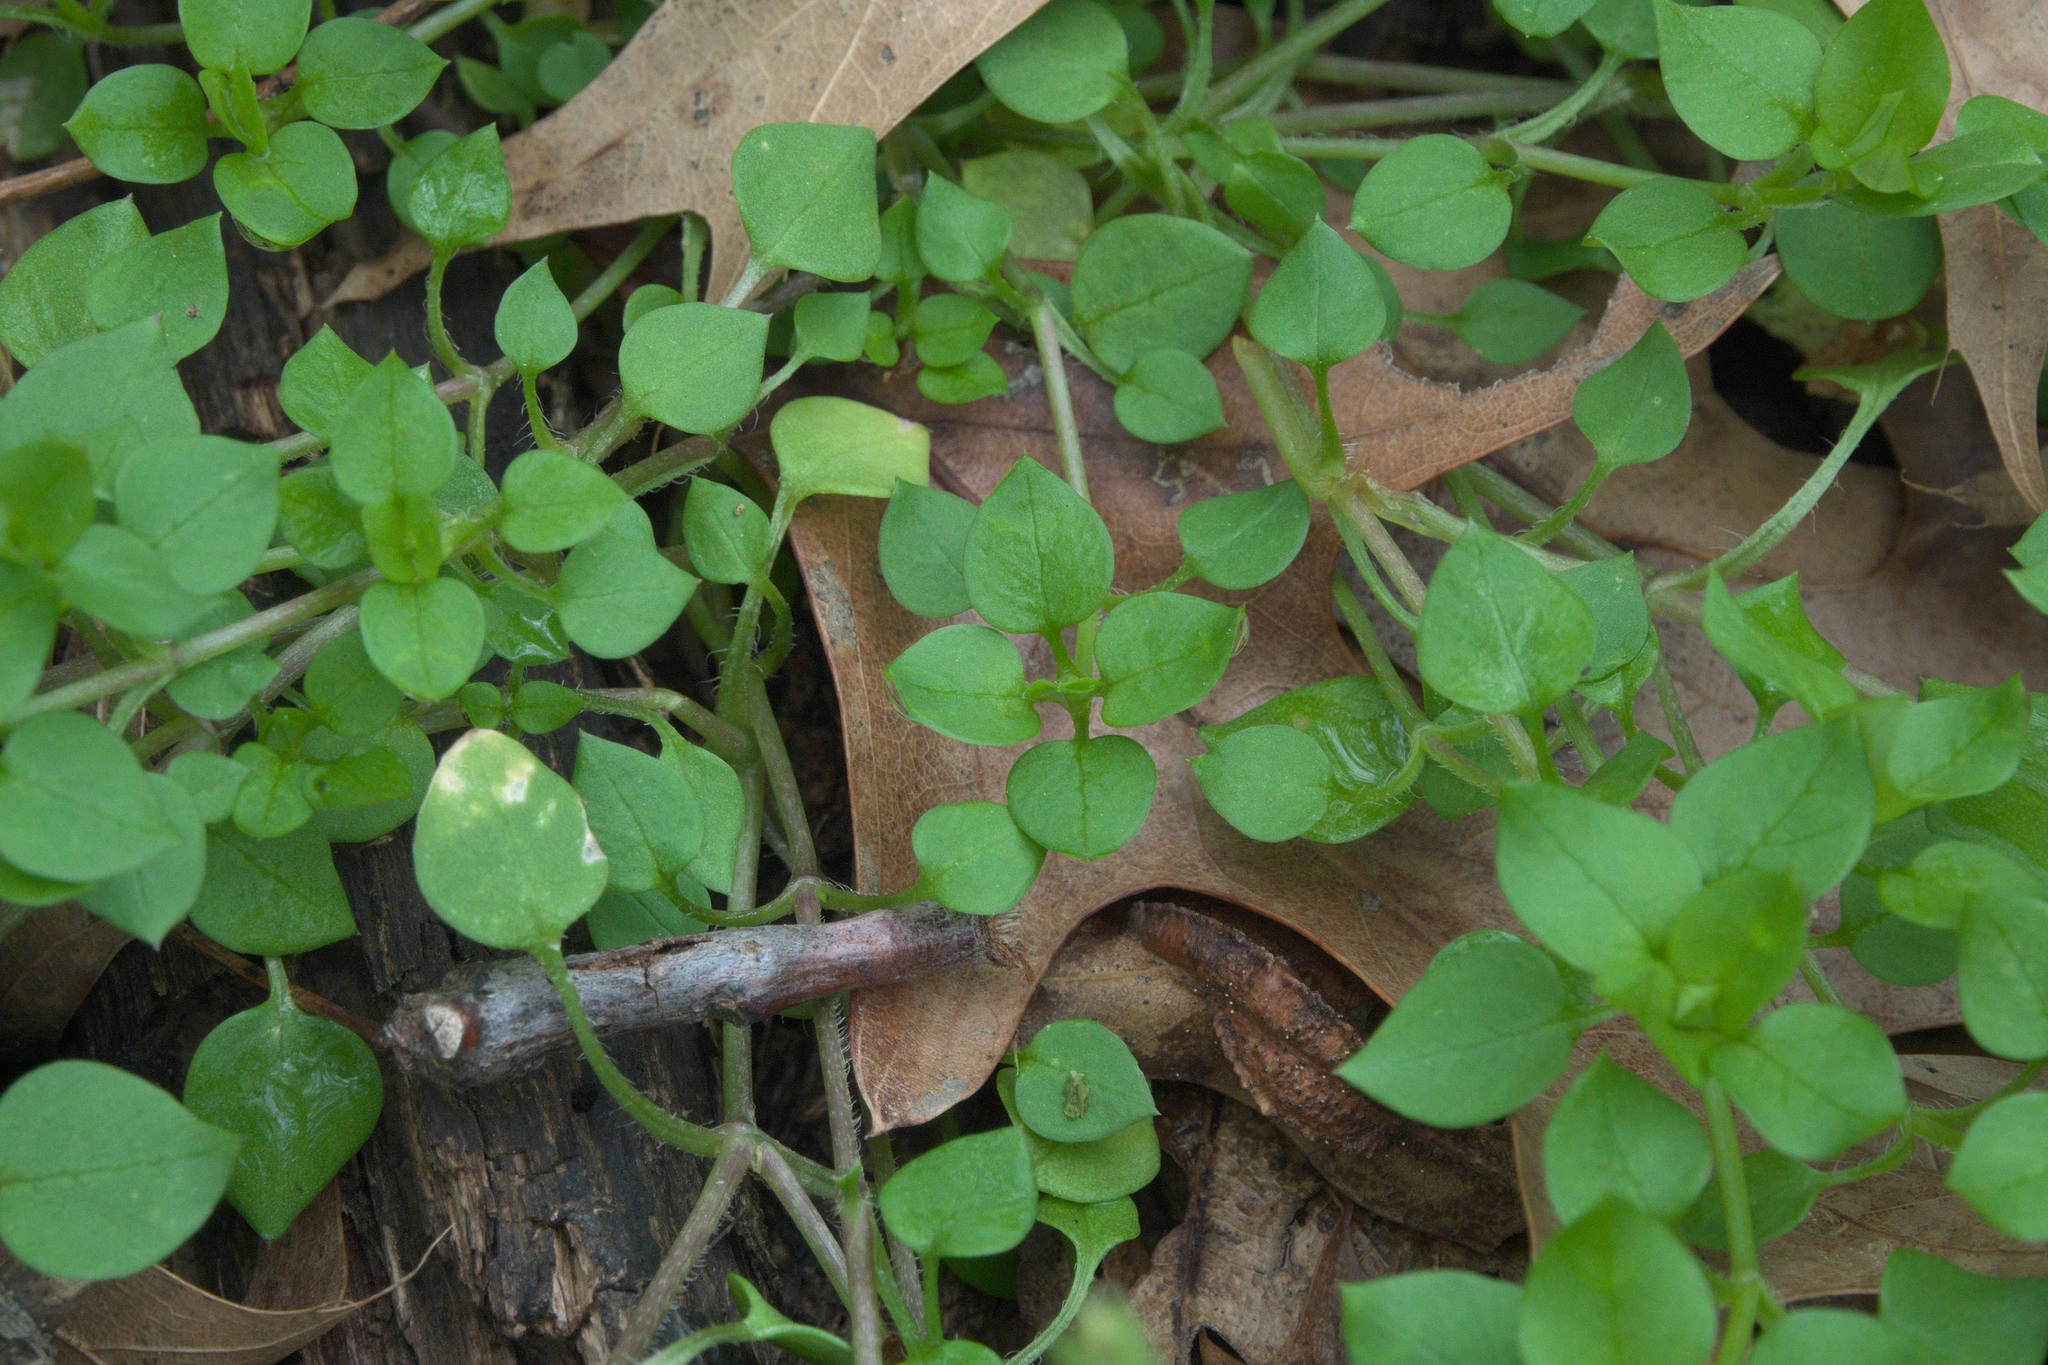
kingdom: Plantae
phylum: Tracheophyta
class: Magnoliopsida
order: Caryophyllales
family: Caryophyllaceae
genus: Stellaria
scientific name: Stellaria media
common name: Common chickweed
